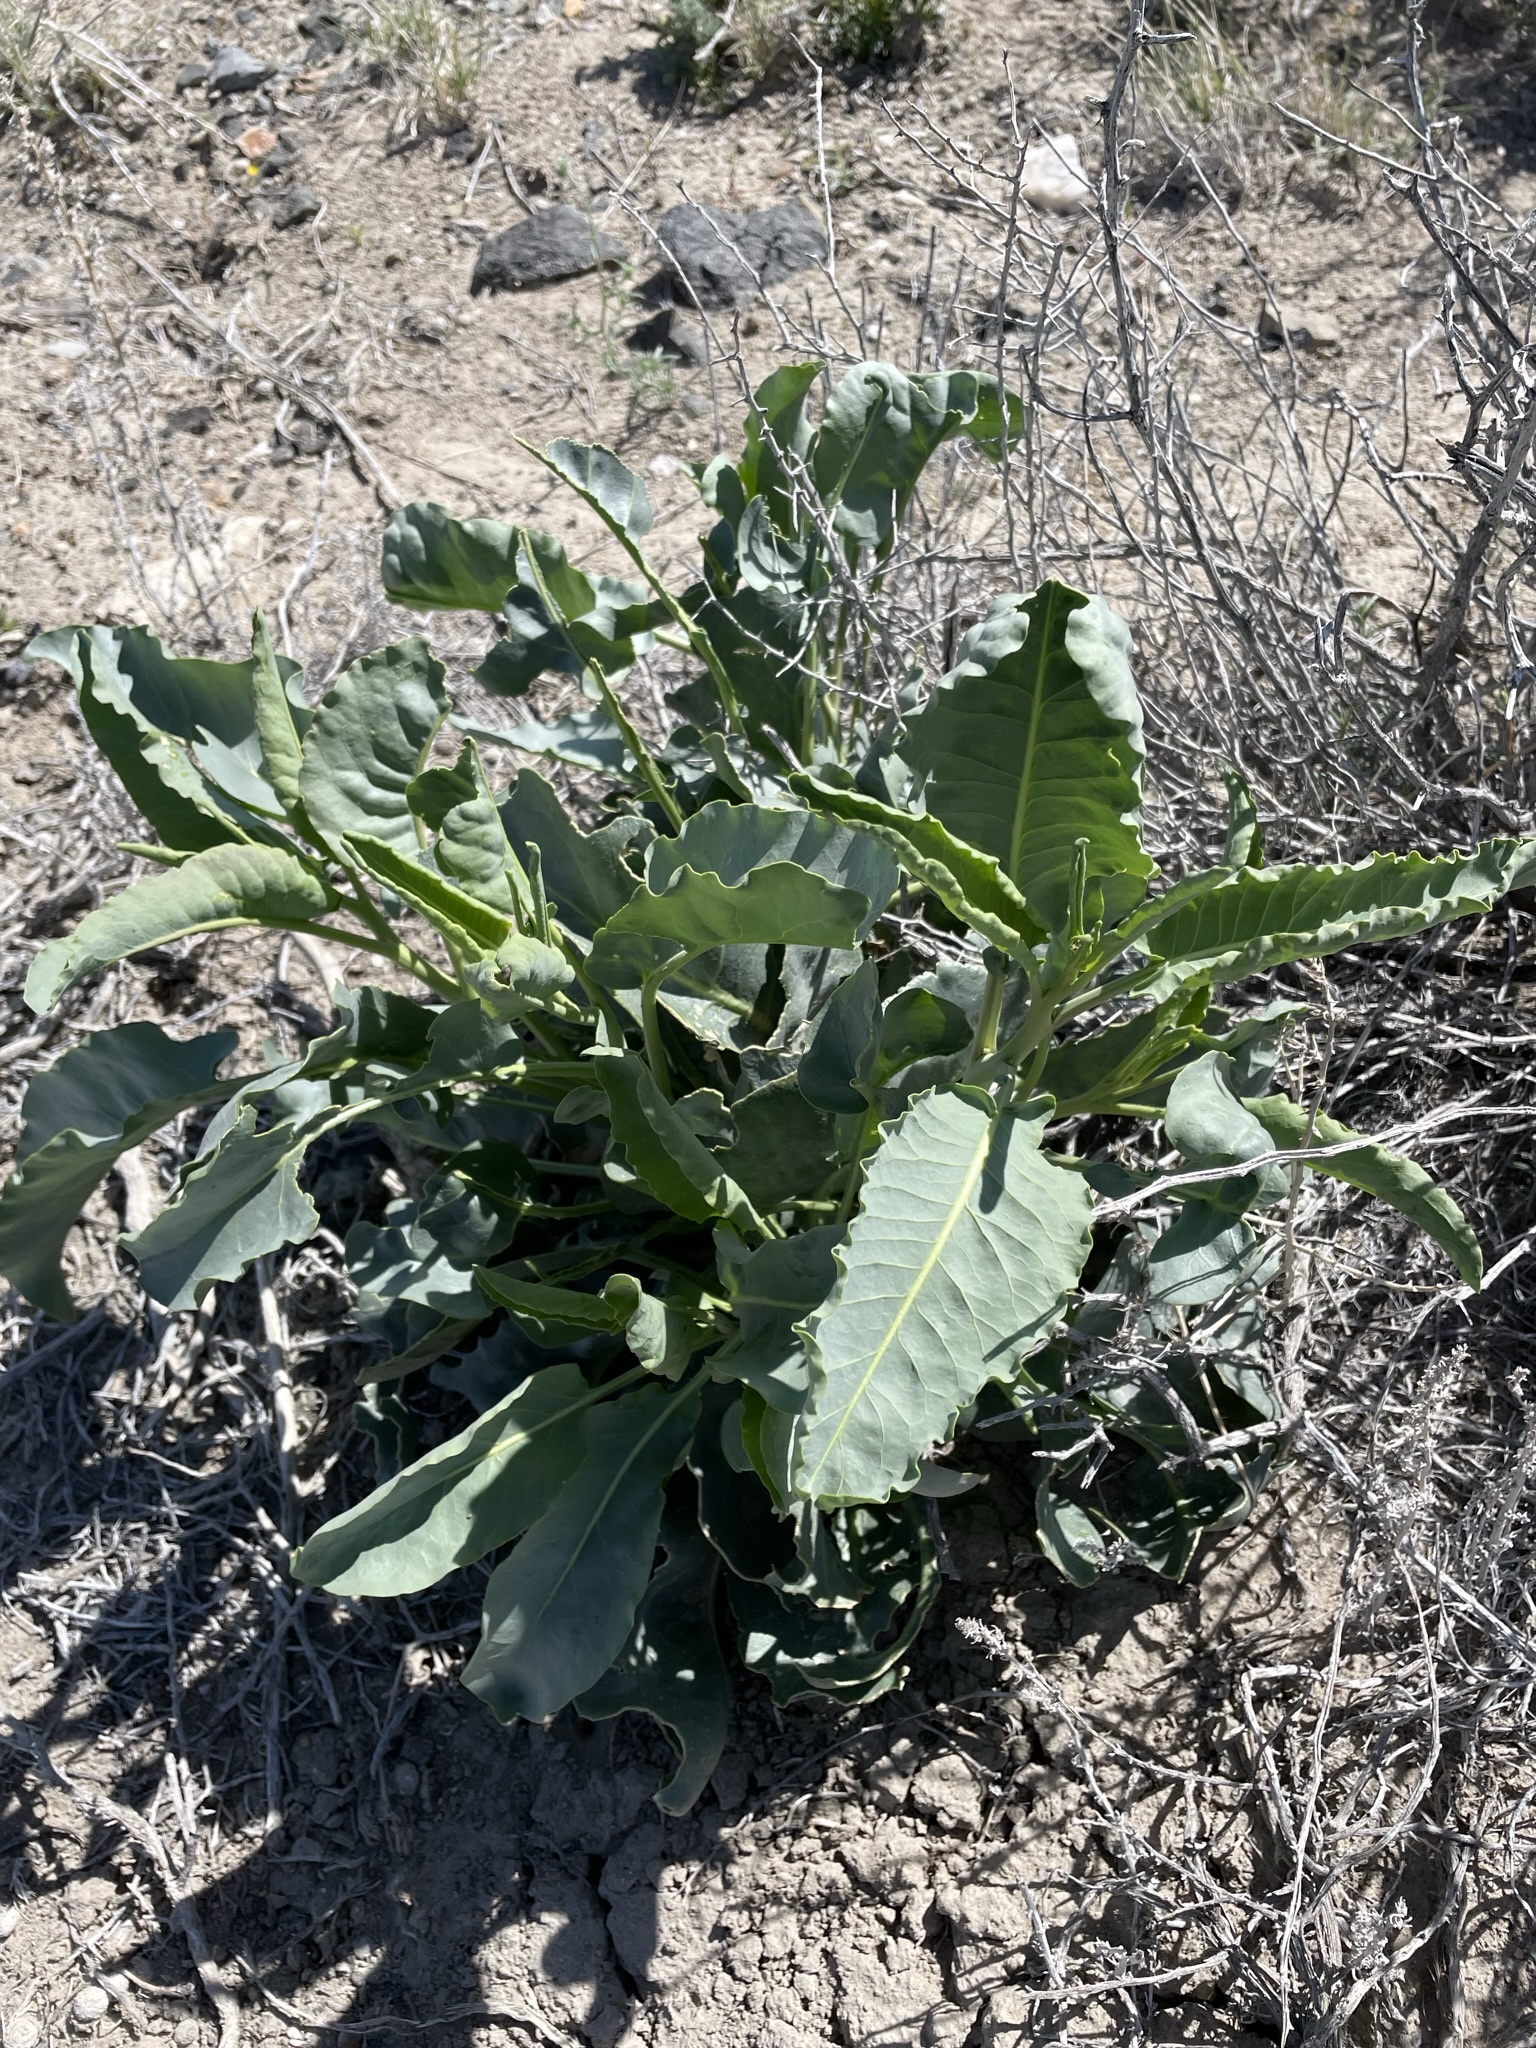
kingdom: Plantae
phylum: Tracheophyta
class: Magnoliopsida
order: Brassicales
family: Brassicaceae
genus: Stanleya
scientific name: Stanleya elata
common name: Panamint prince's plume
